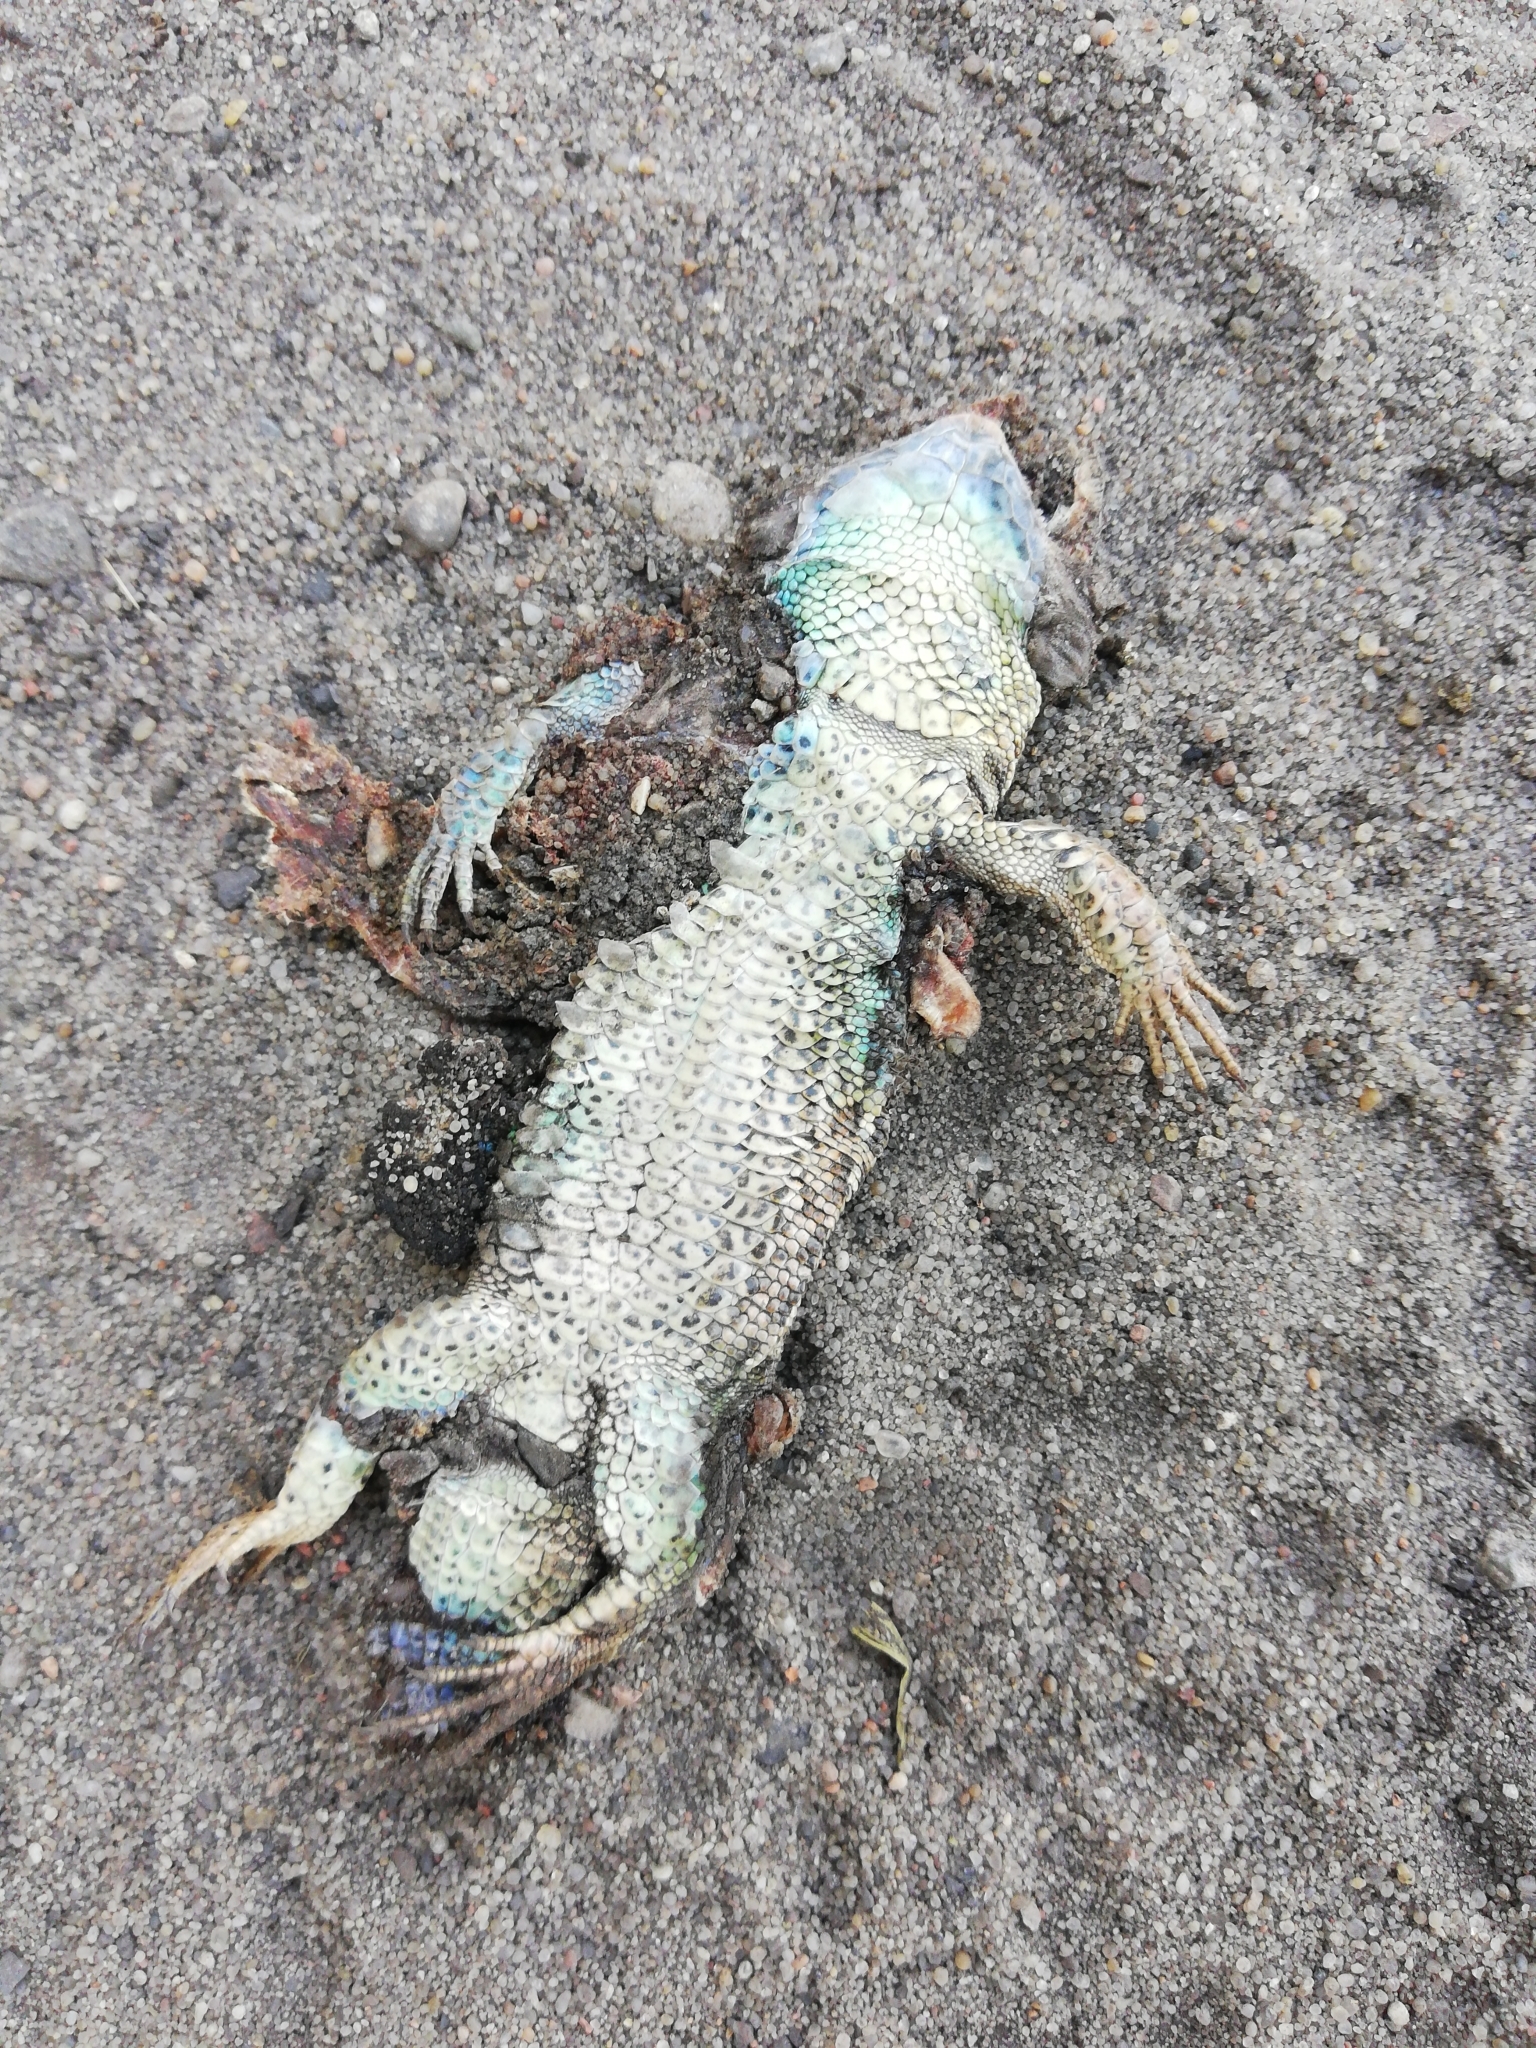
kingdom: Animalia
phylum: Chordata
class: Squamata
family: Lacertidae
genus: Lacerta
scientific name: Lacerta agilis
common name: Sand lizard
